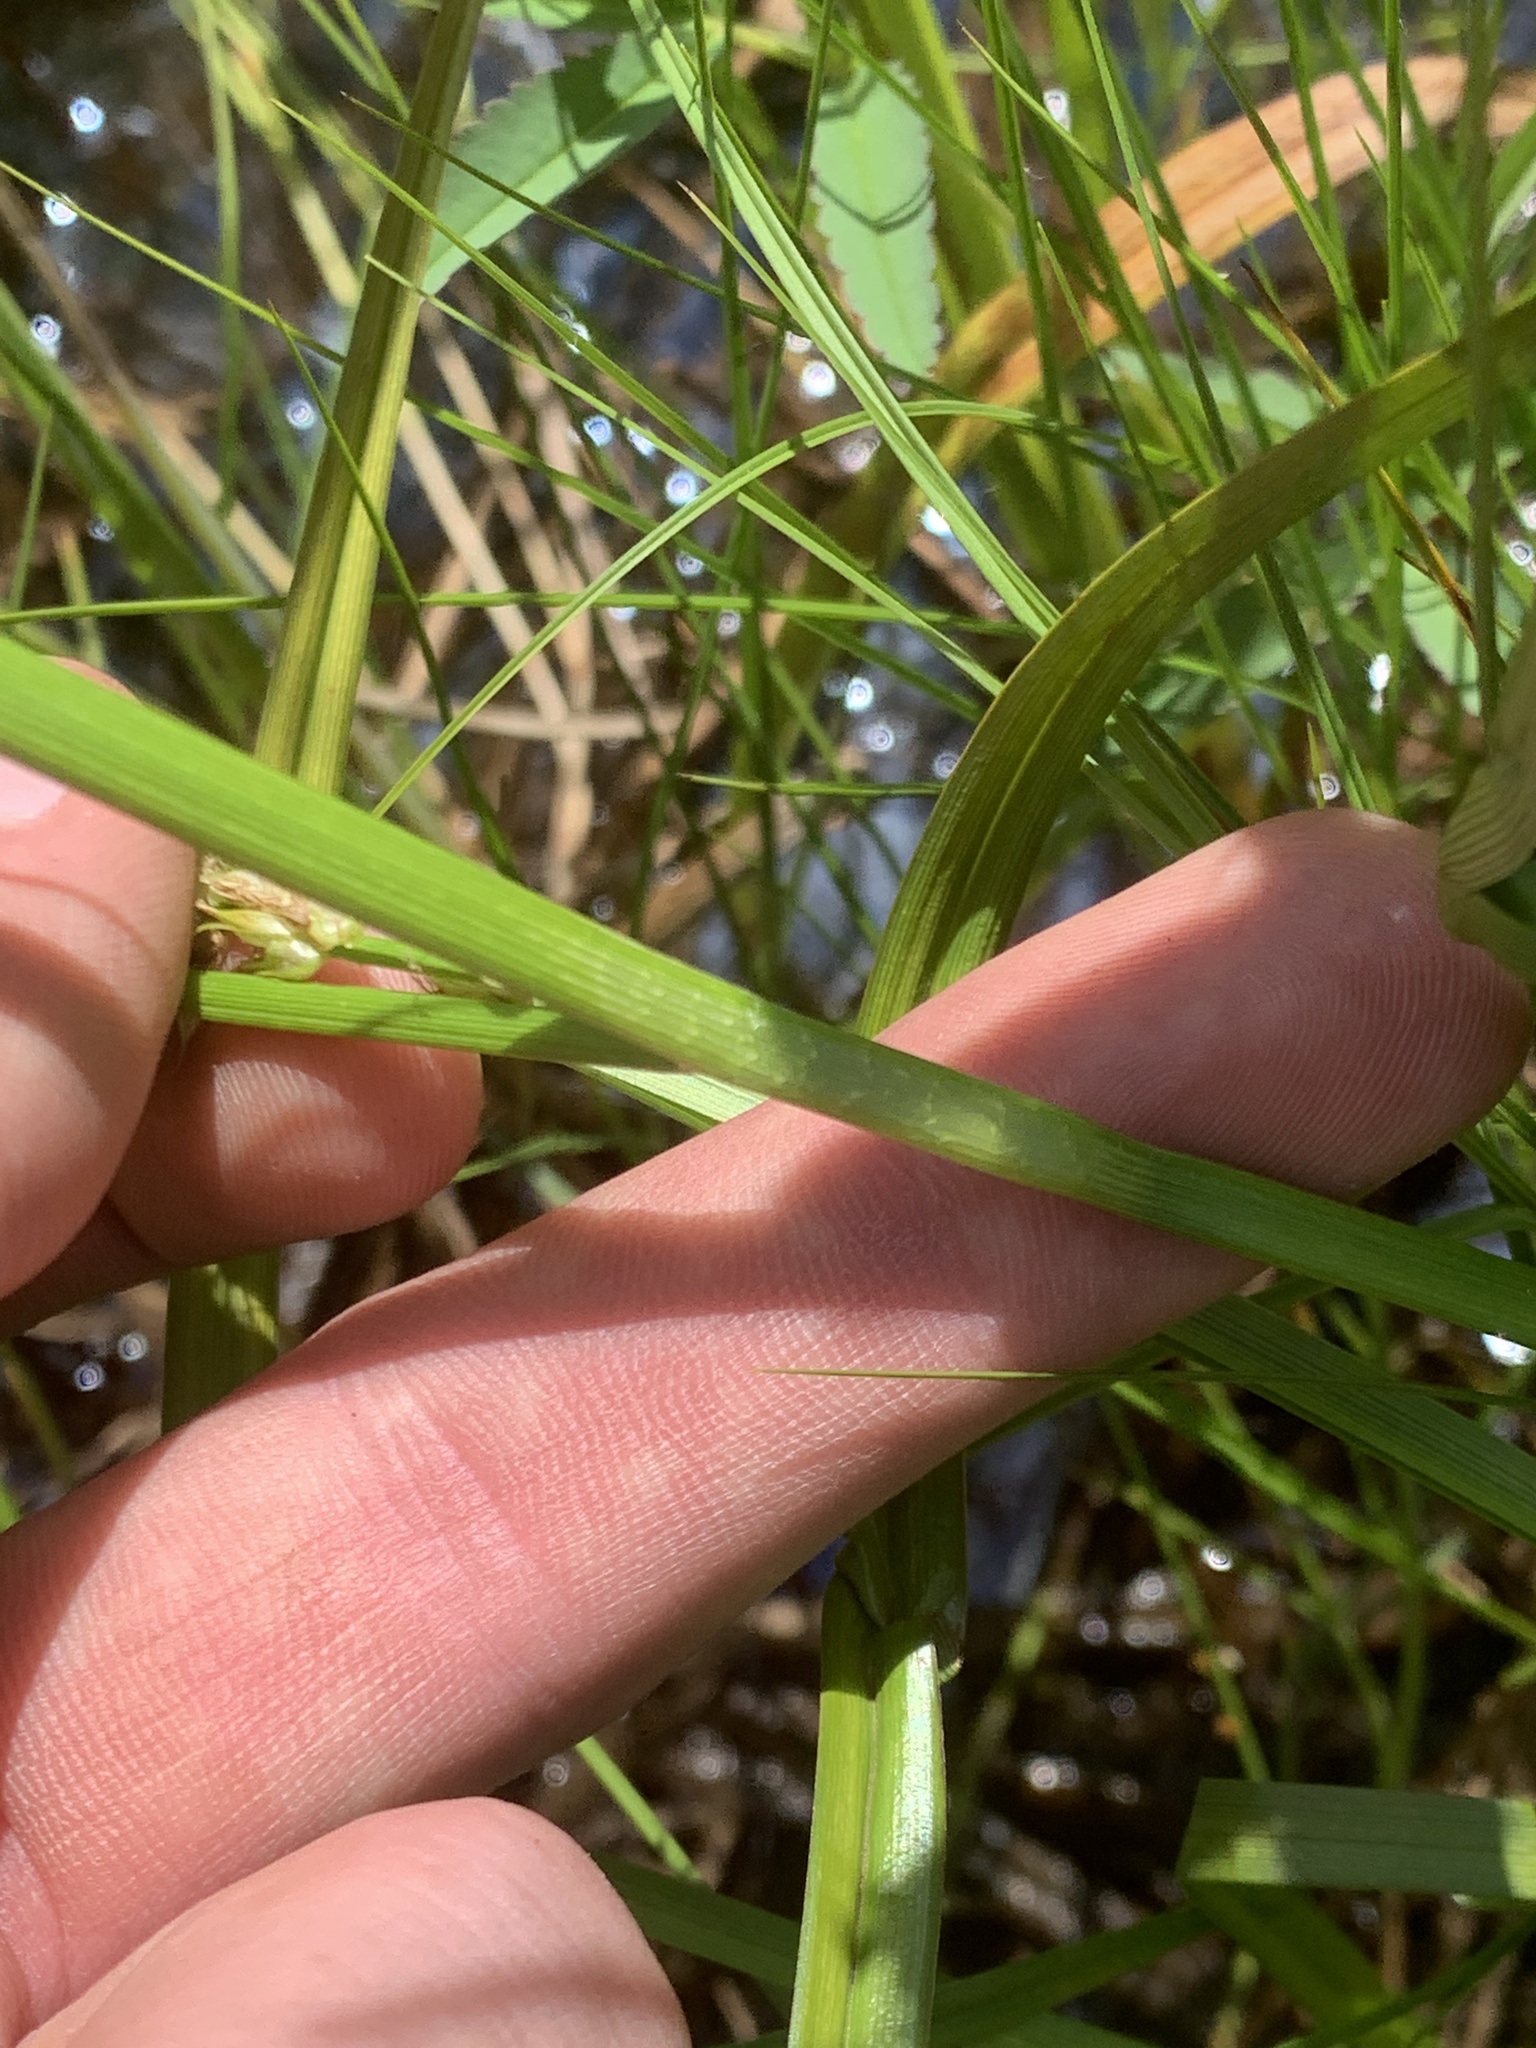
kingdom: Plantae
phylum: Tracheophyta
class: Liliopsida
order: Poales
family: Cyperaceae
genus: Carex
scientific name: Carex utriculata
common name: Beaked sedge
